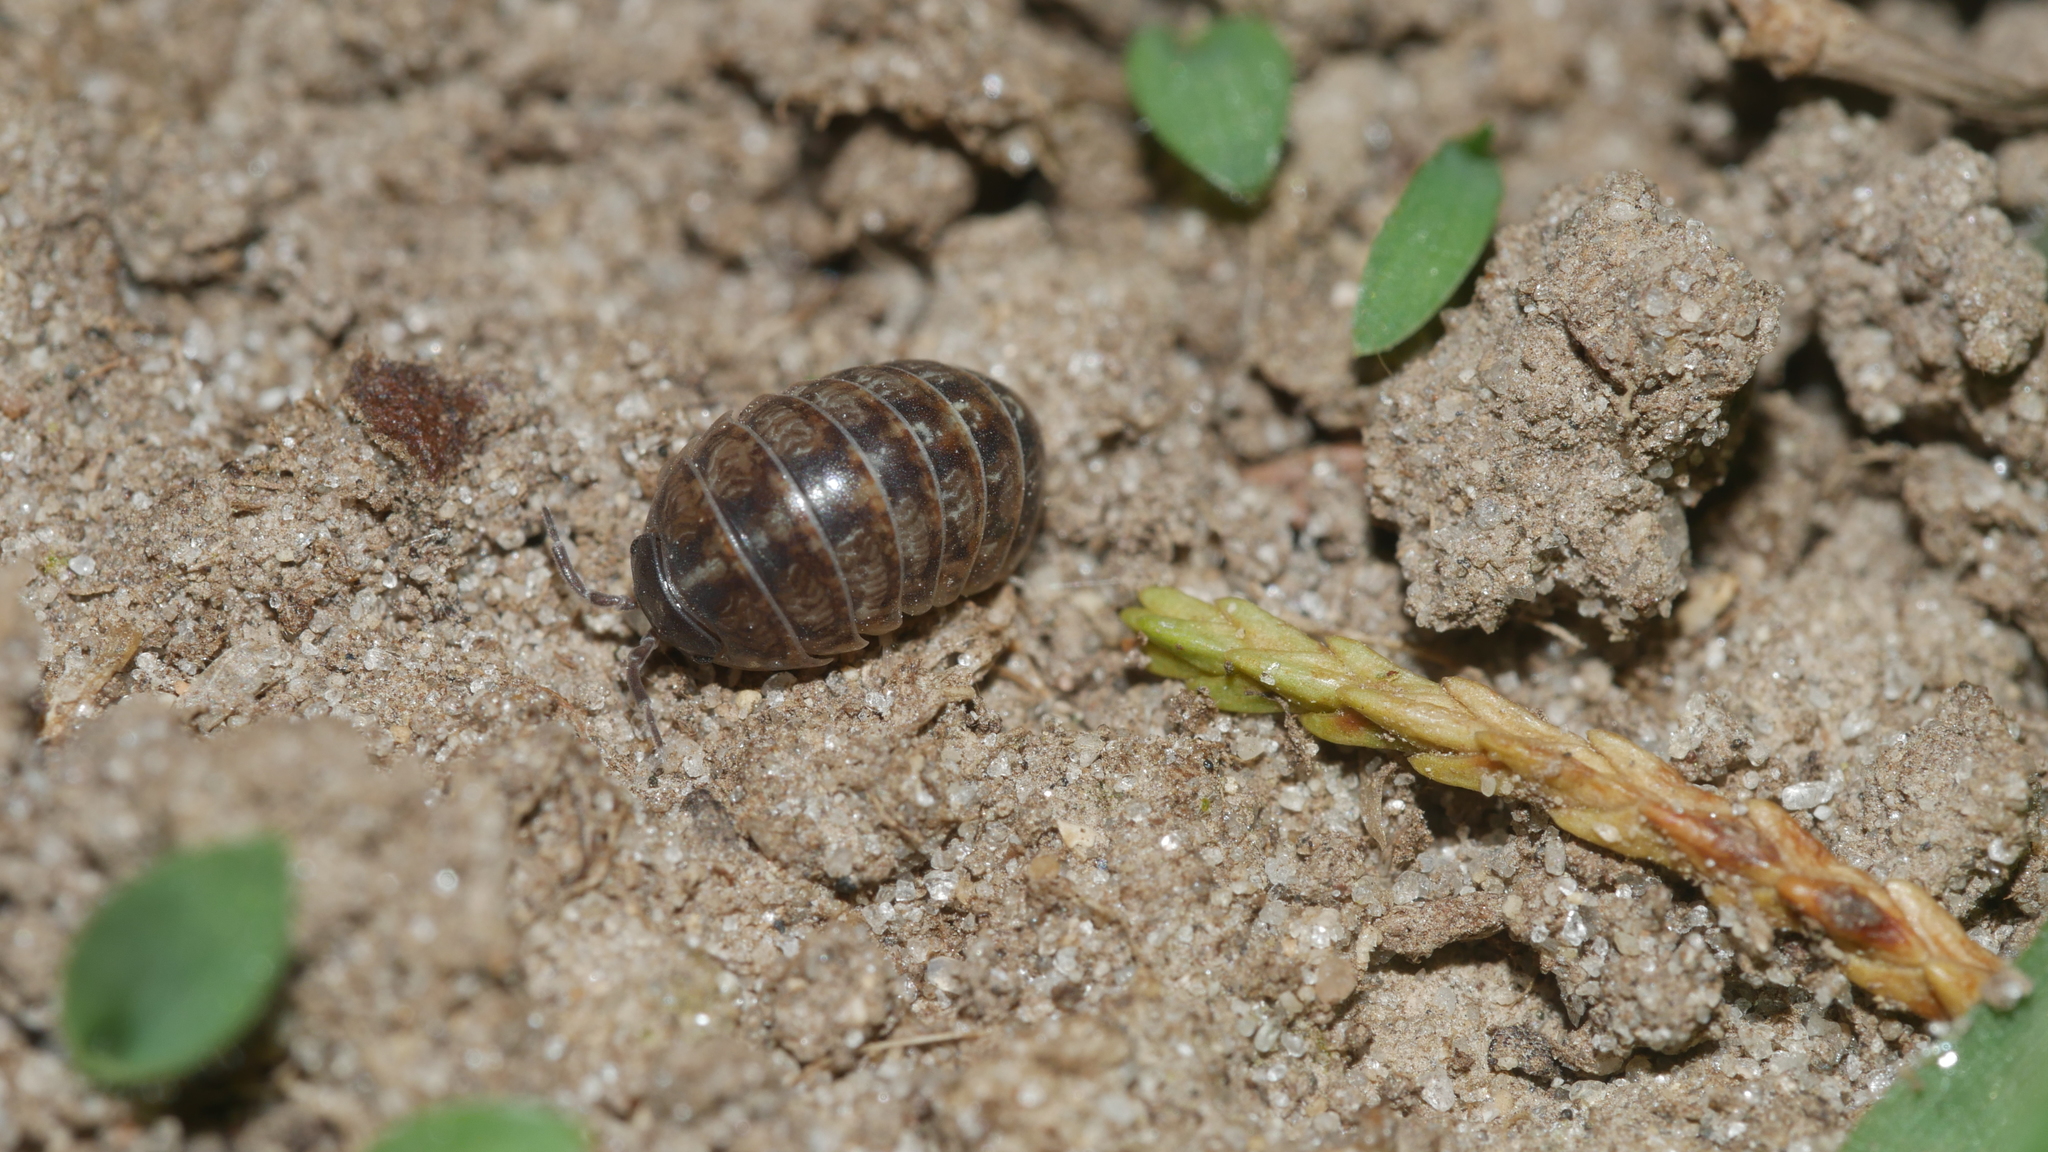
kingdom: Animalia
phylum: Arthropoda
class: Malacostraca
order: Isopoda
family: Armadillidiidae
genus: Armadillidium
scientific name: Armadillidium vulgare
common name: Common pill woodlouse
